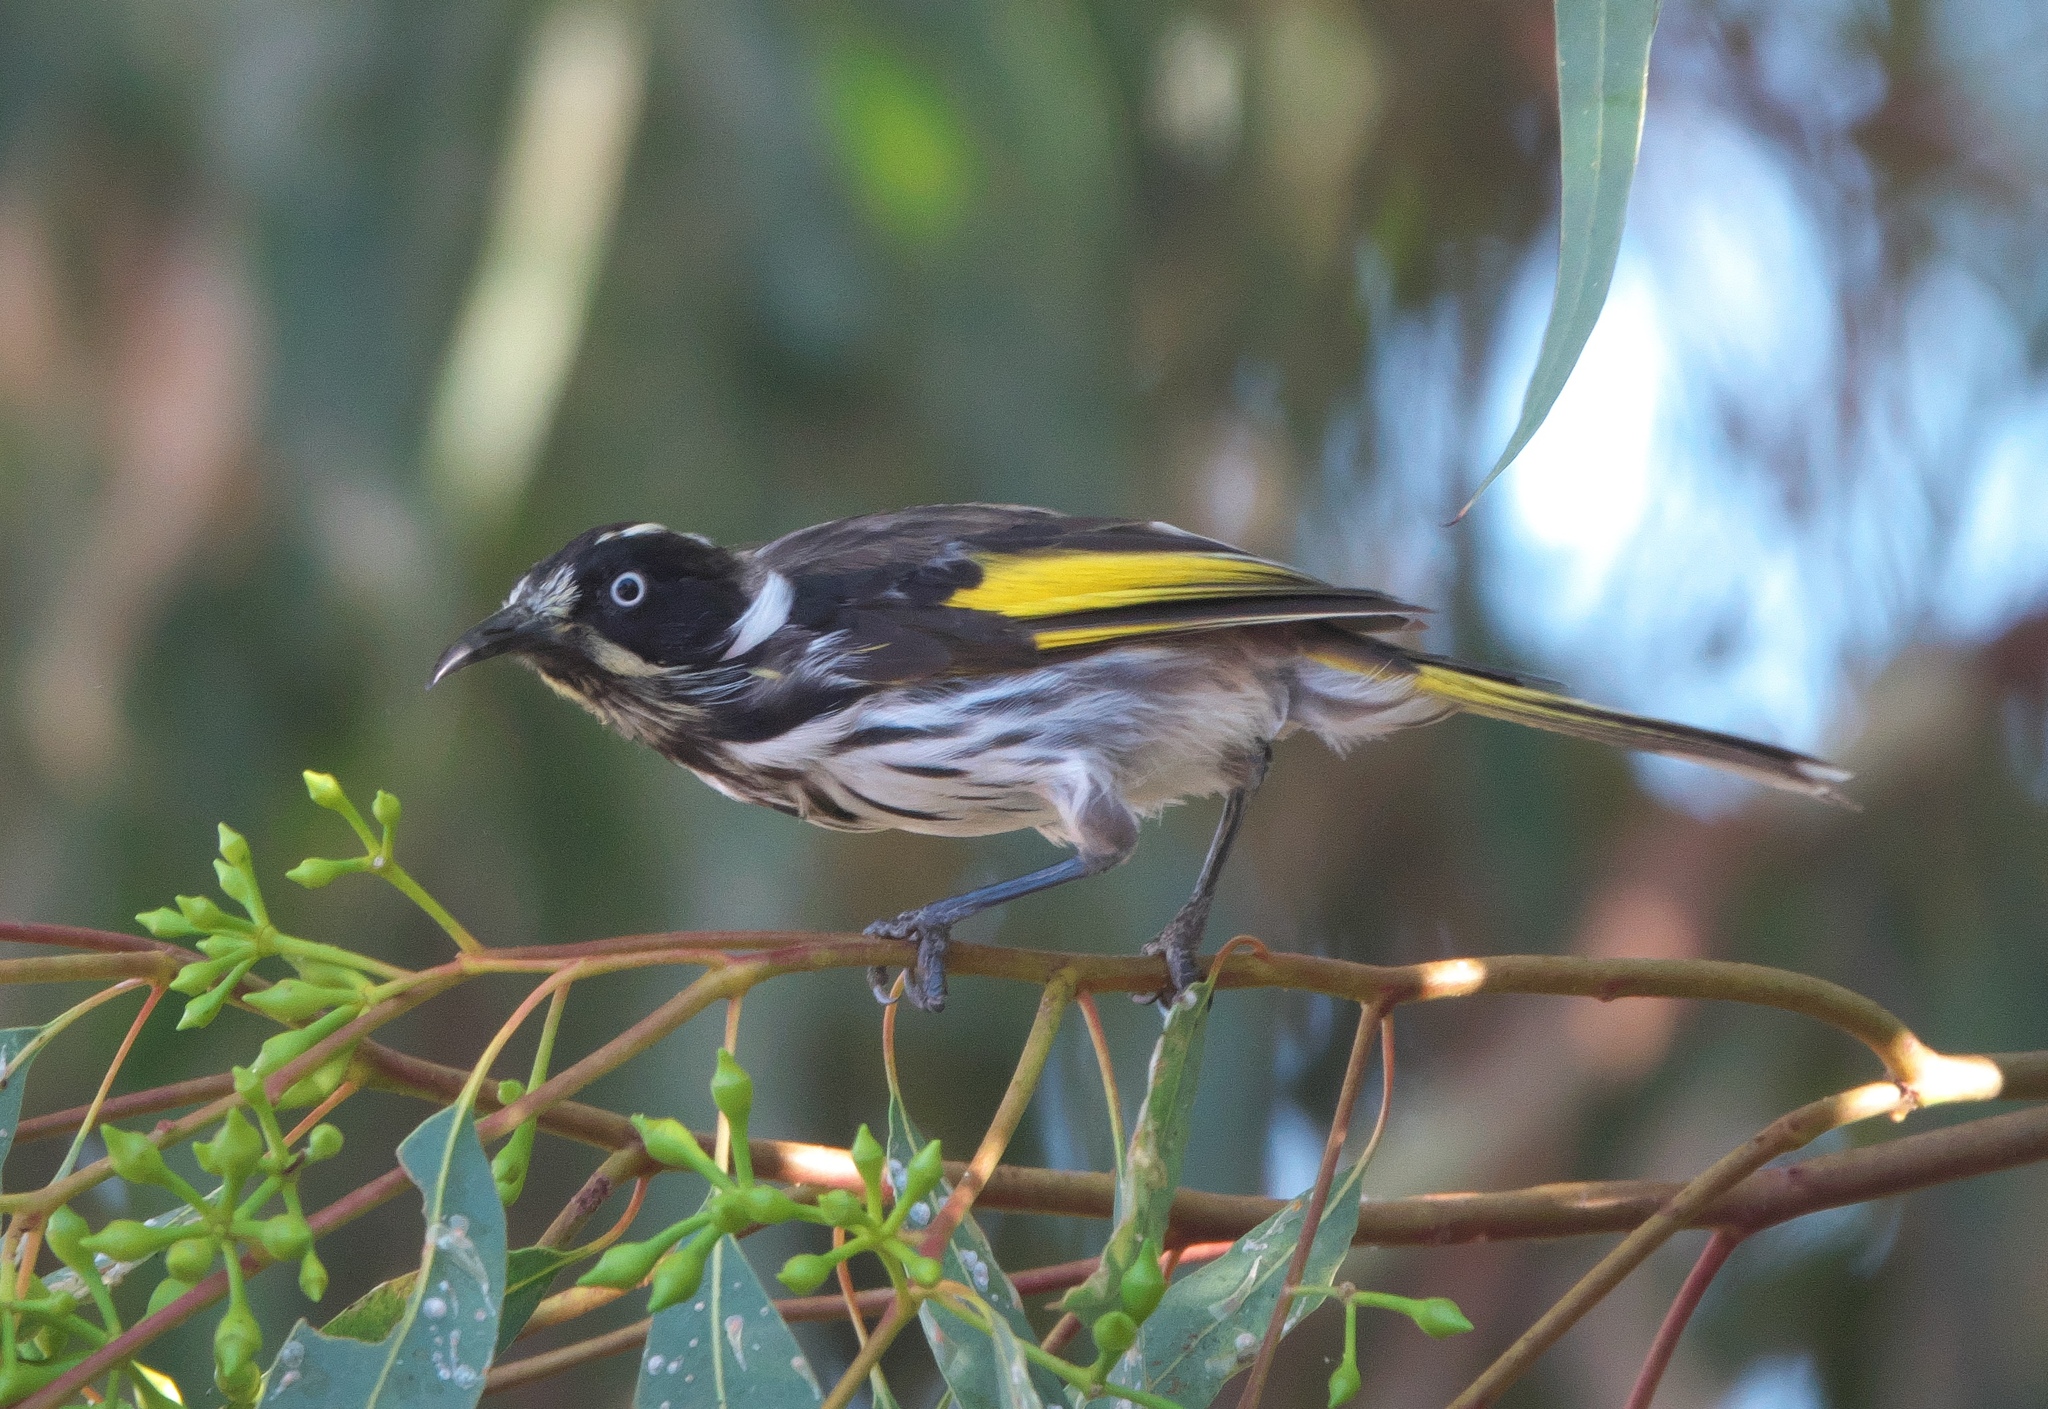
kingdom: Animalia
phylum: Chordata
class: Aves
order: Passeriformes
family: Meliphagidae
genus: Phylidonyris
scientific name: Phylidonyris novaehollandiae
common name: New holland honeyeater
